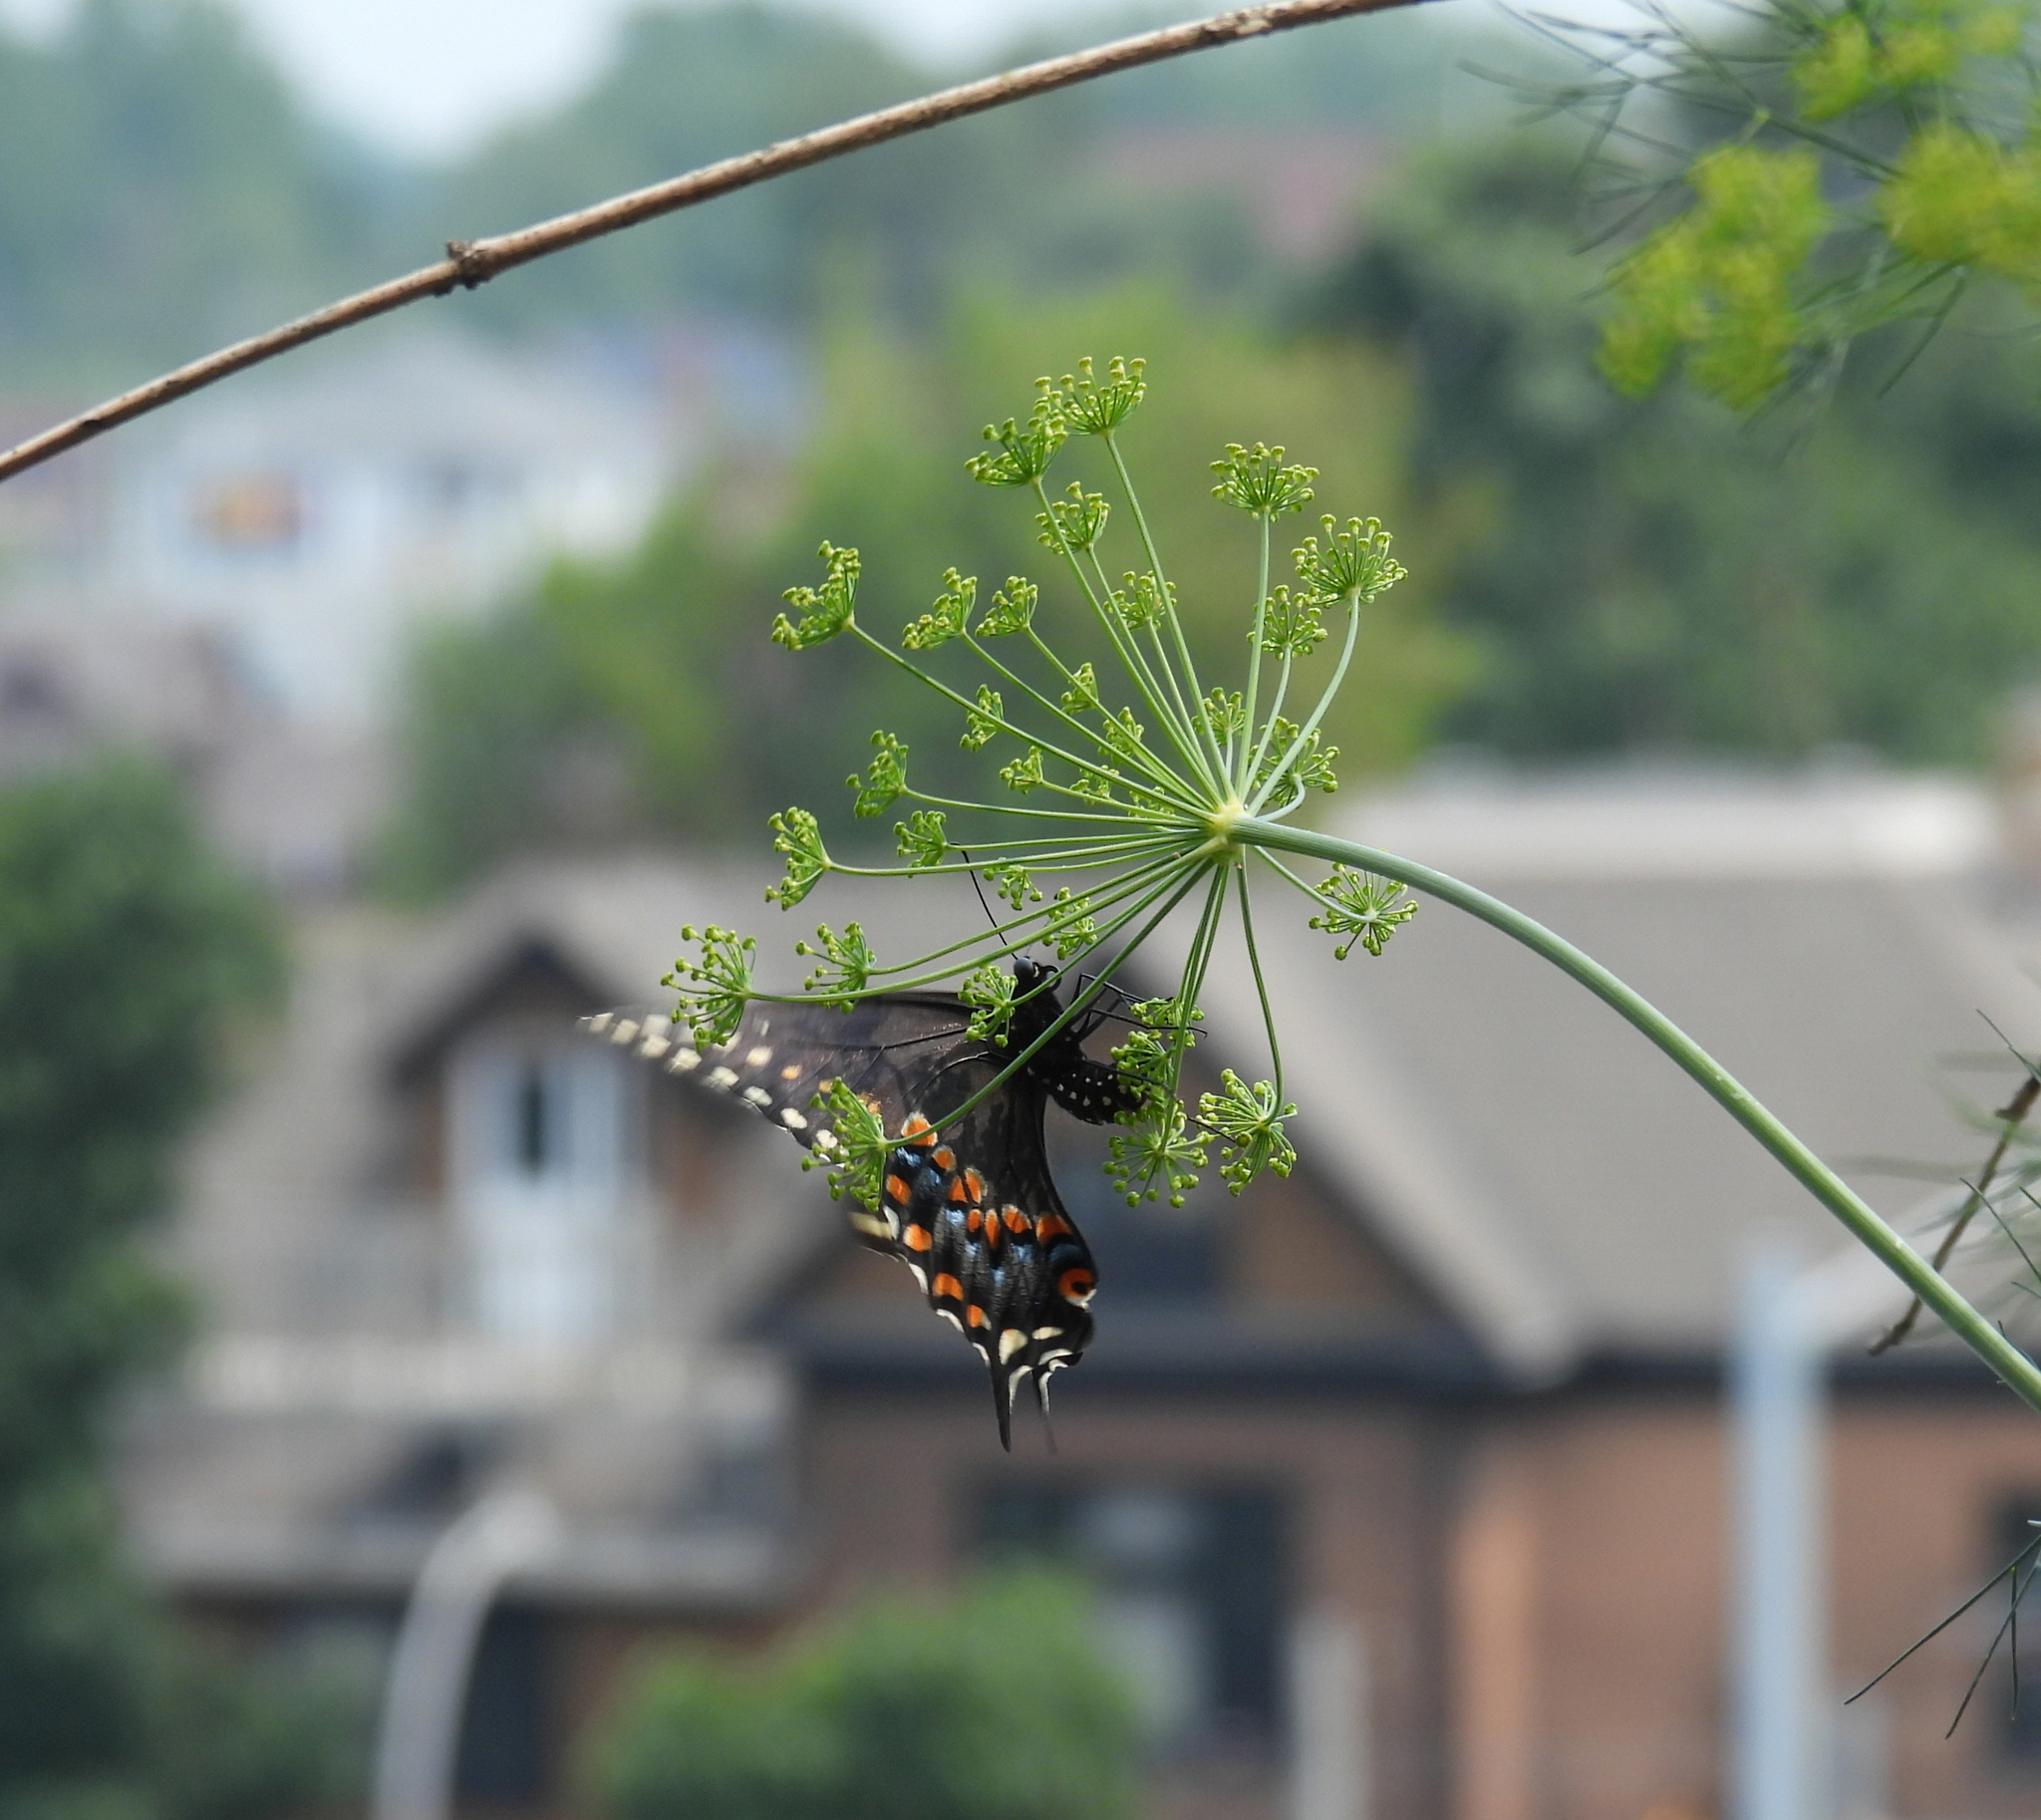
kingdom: Animalia
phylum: Arthropoda
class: Insecta
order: Lepidoptera
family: Papilionidae
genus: Papilio
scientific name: Papilio polyxenes
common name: Black swallowtail
